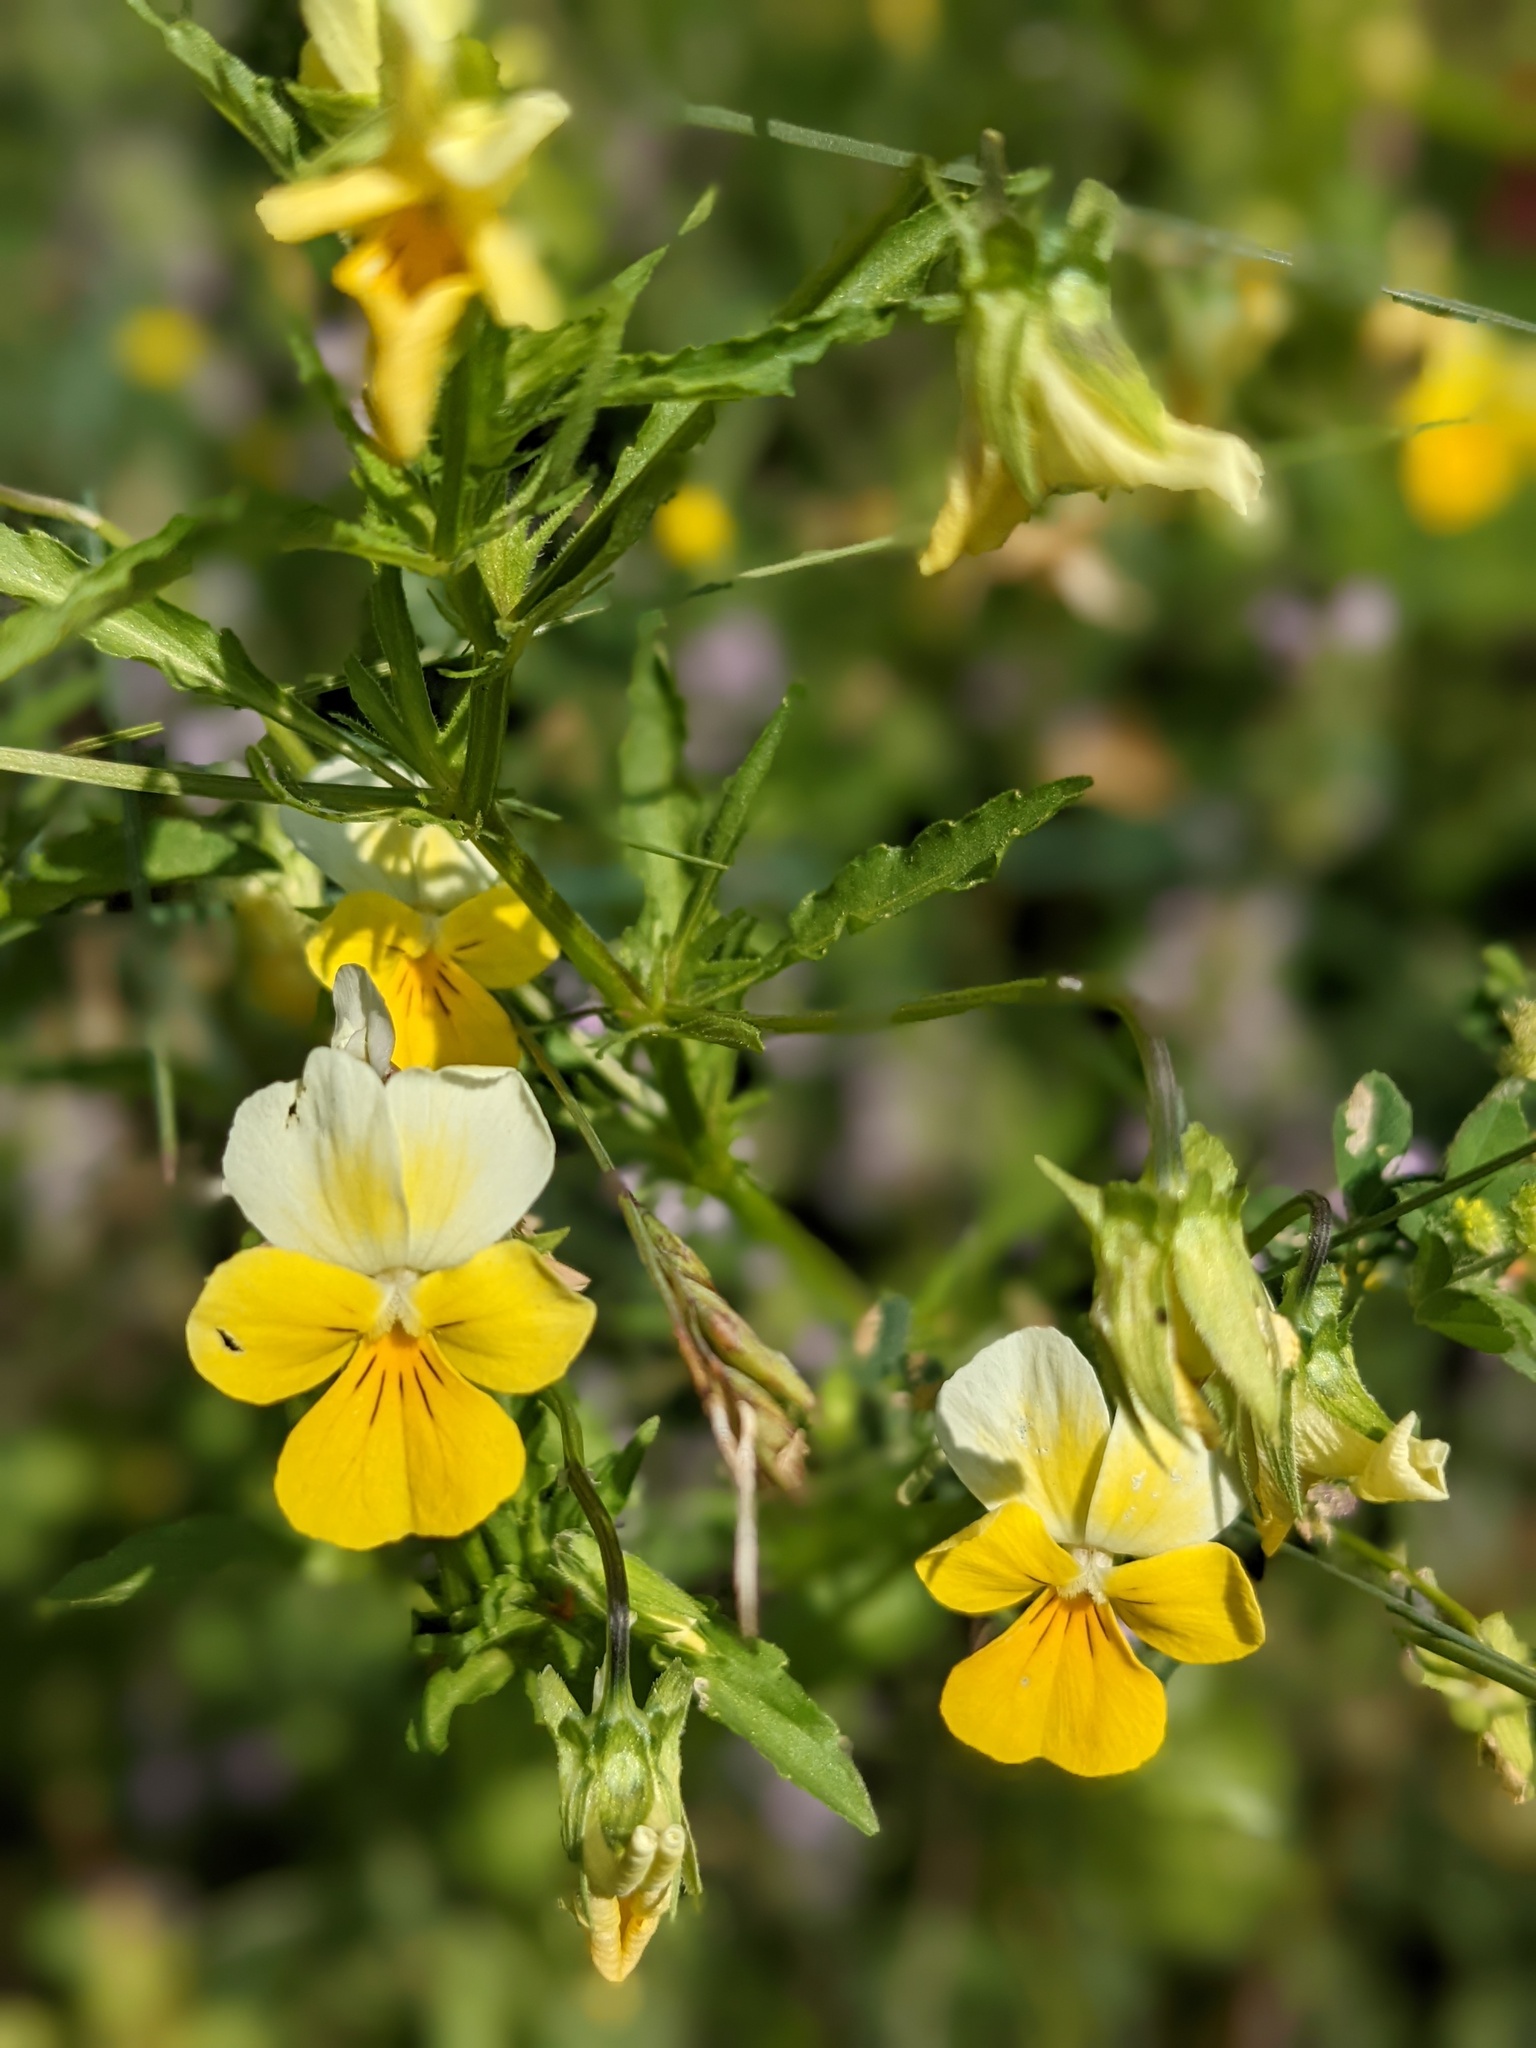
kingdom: Plantae
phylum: Tracheophyta
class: Magnoliopsida
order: Malpighiales
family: Violaceae
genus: Viola
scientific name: Viola tricolor
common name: Pansy
